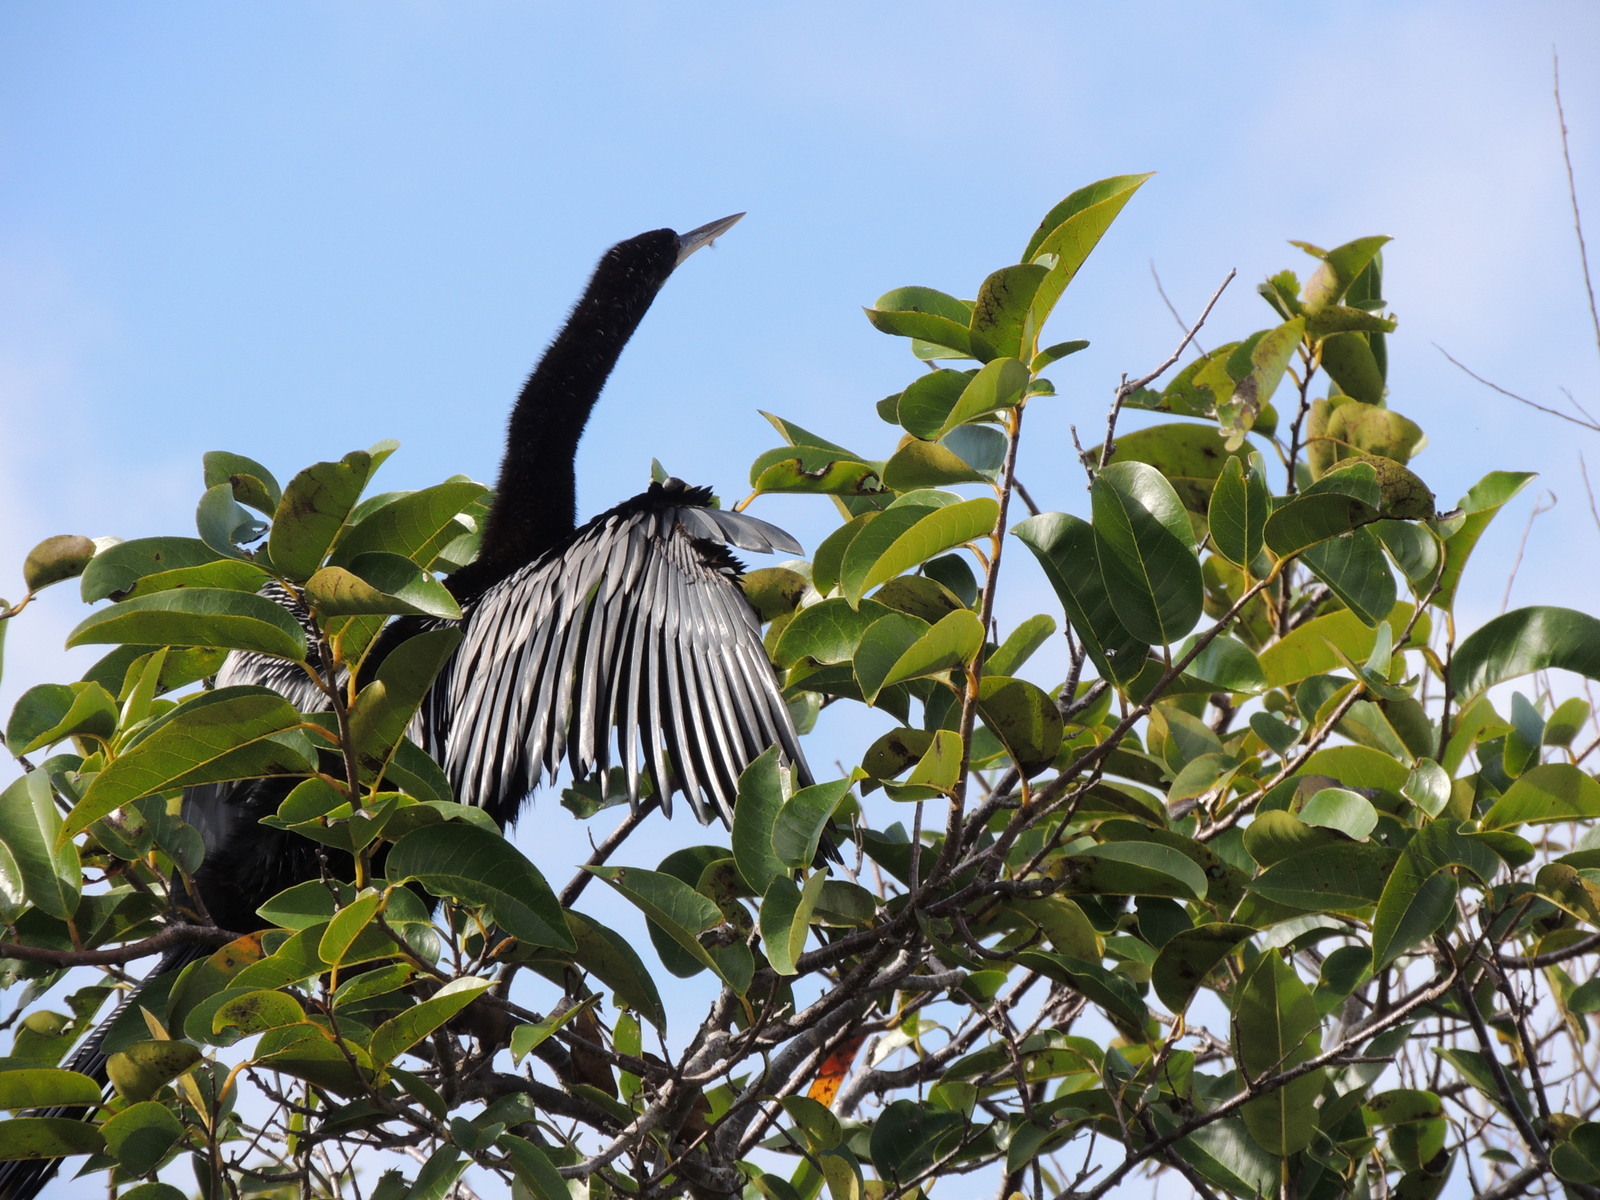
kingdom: Animalia
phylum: Chordata
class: Aves
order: Suliformes
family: Anhingidae
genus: Anhinga
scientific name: Anhinga anhinga
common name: Anhinga
